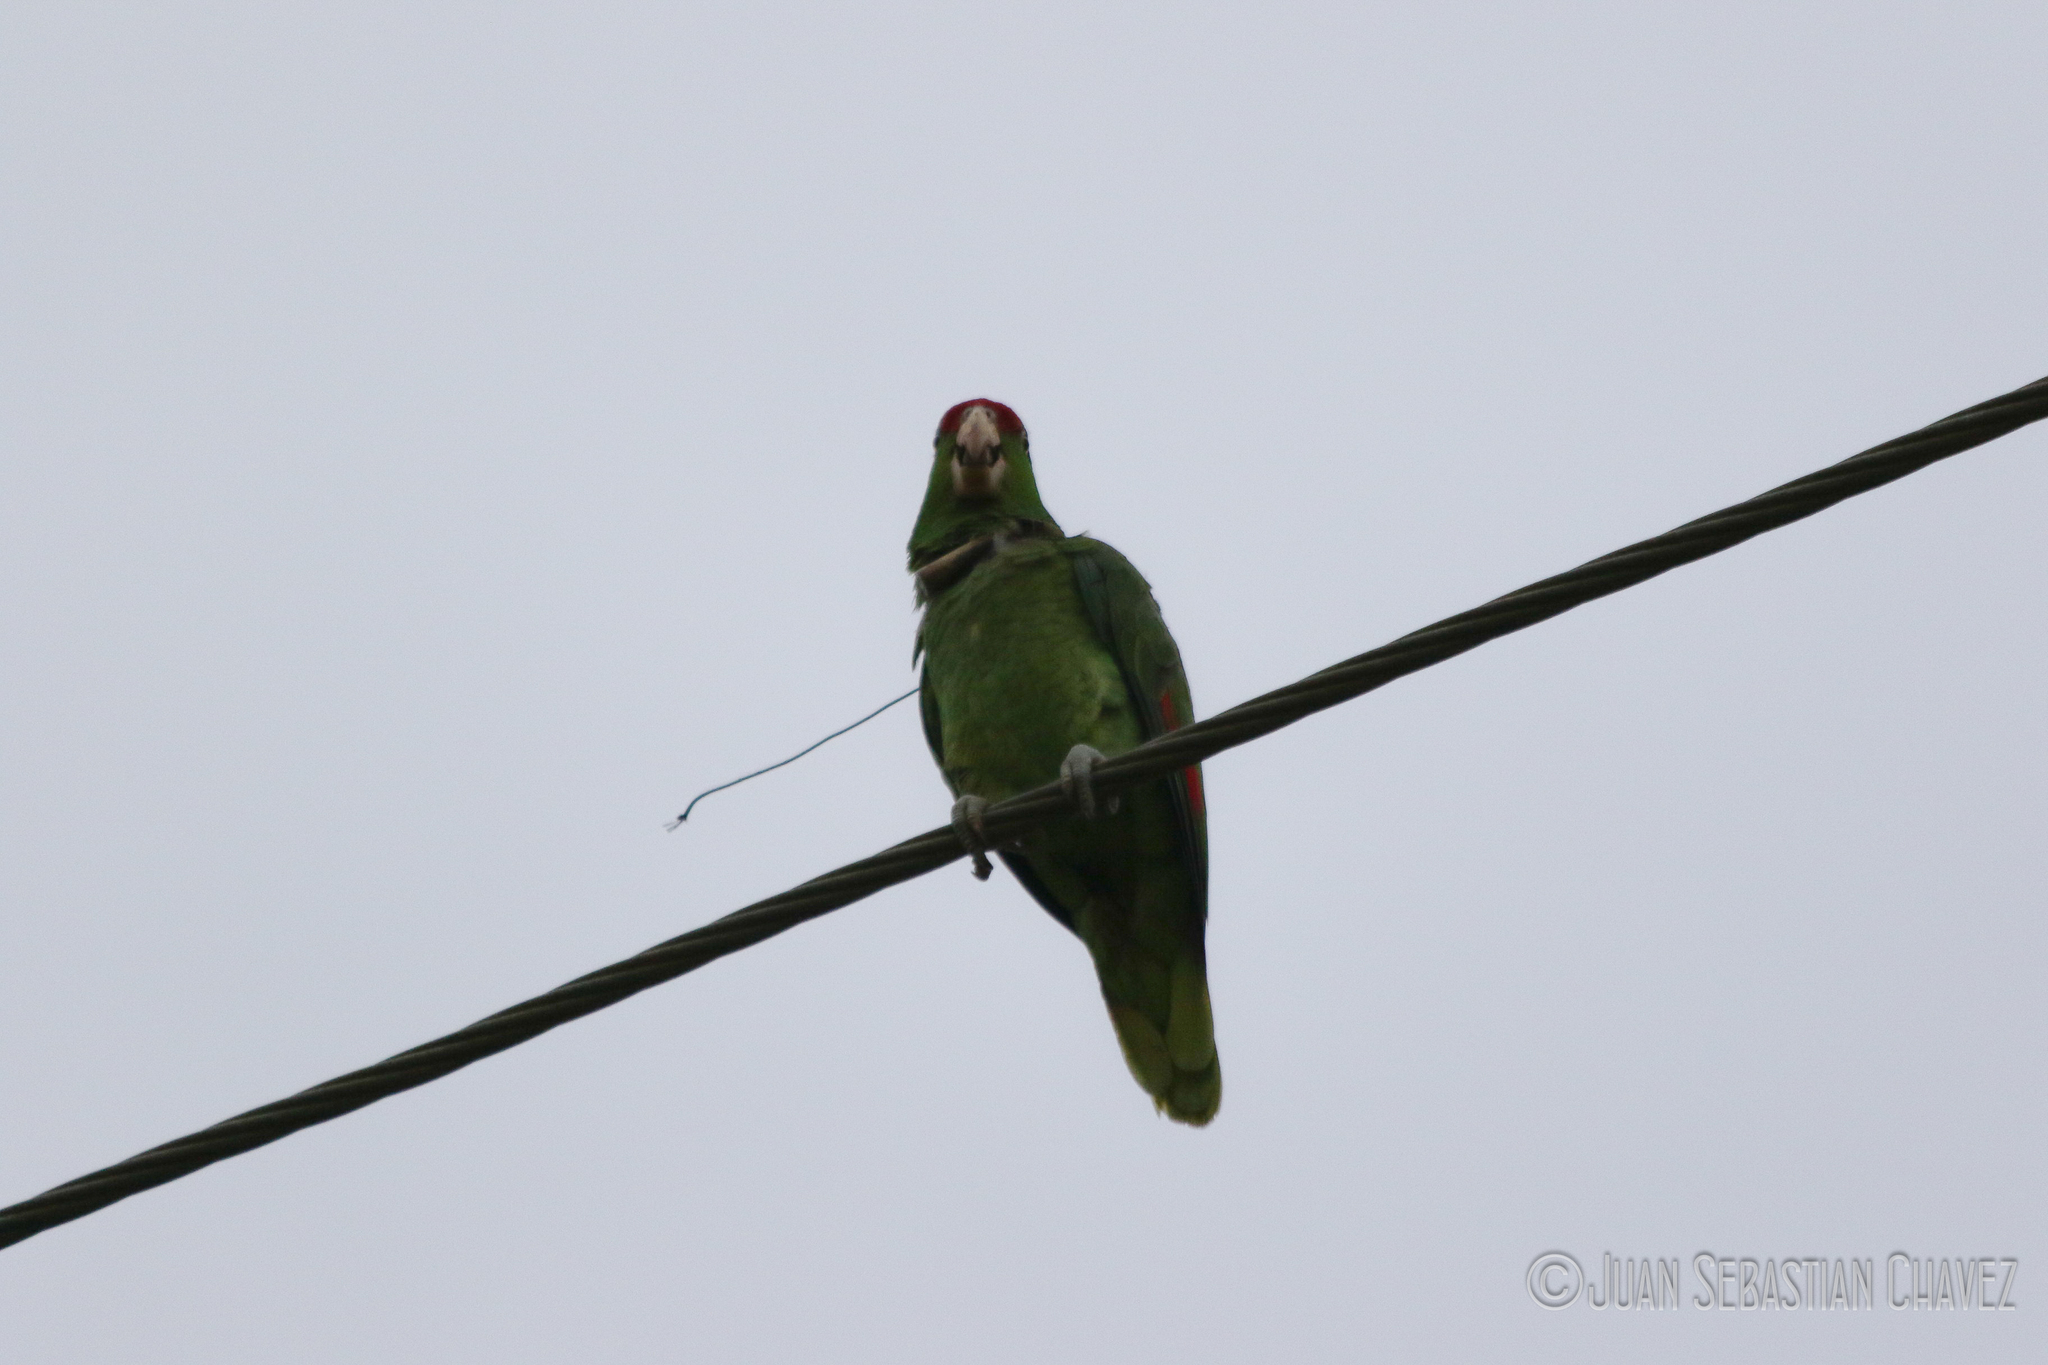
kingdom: Animalia
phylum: Chordata
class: Aves
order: Psittaciformes
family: Psittacidae
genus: Amazona
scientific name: Amazona viridigenalis
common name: Red-crowned amazon
